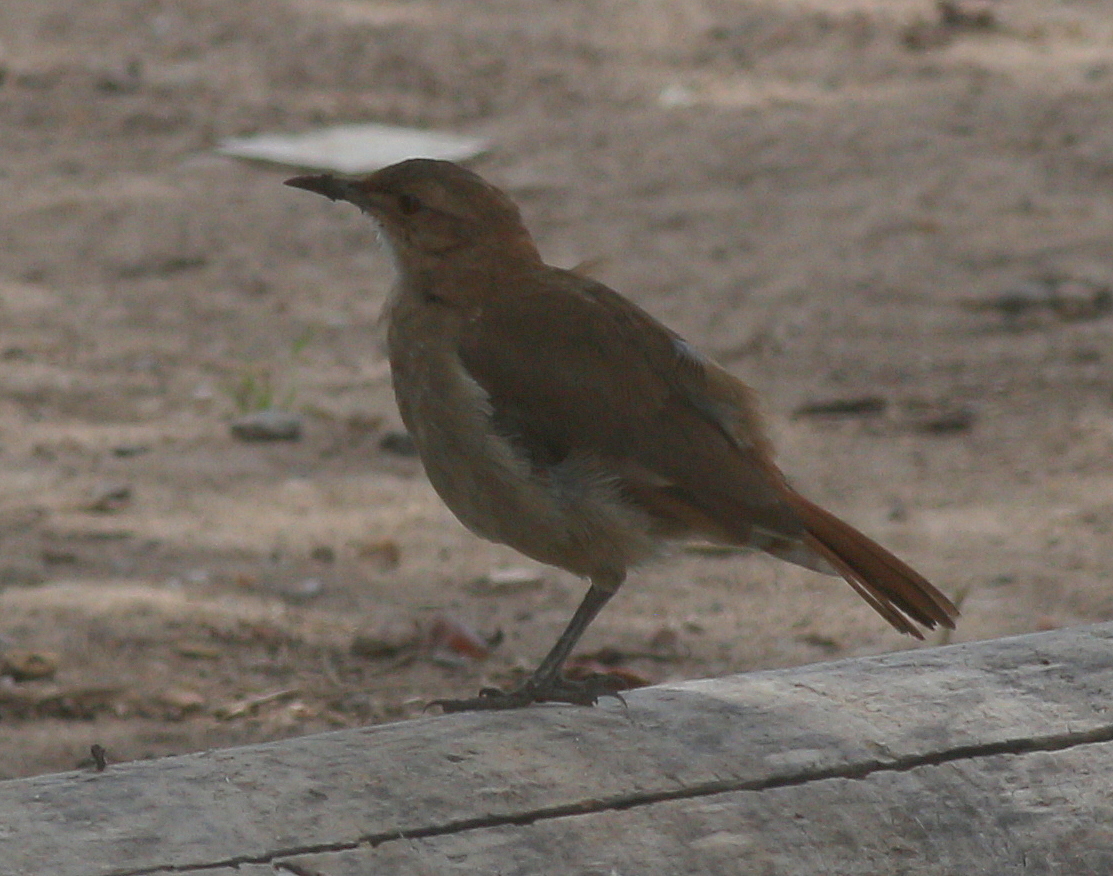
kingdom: Animalia
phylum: Chordata
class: Aves
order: Passeriformes
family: Furnariidae
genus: Furnarius
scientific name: Furnarius rufus
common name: Rufous hornero
